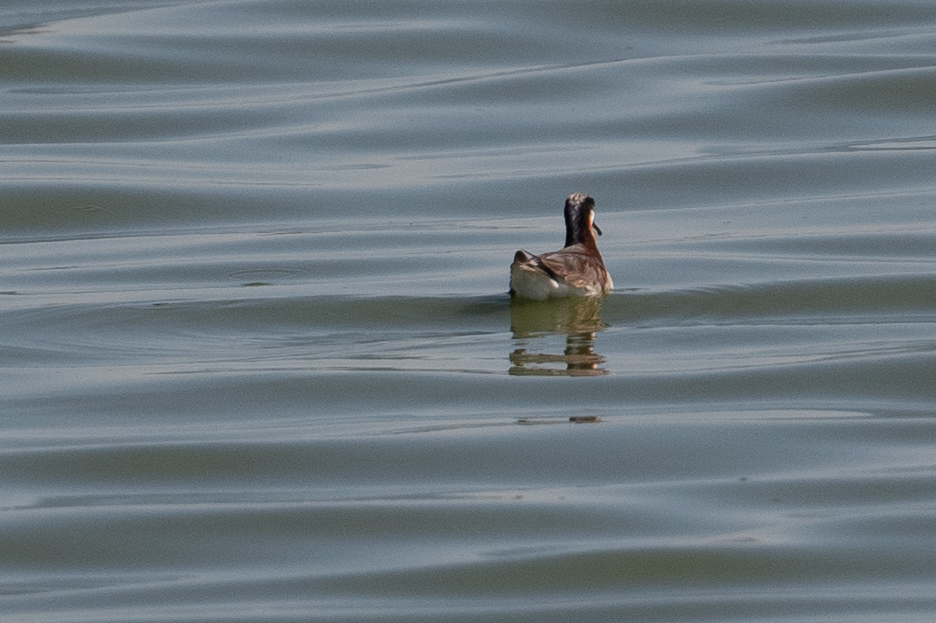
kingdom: Animalia
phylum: Chordata
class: Aves
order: Charadriiformes
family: Scolopacidae
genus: Phalaropus
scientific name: Phalaropus tricolor
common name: Wilson's phalarope
